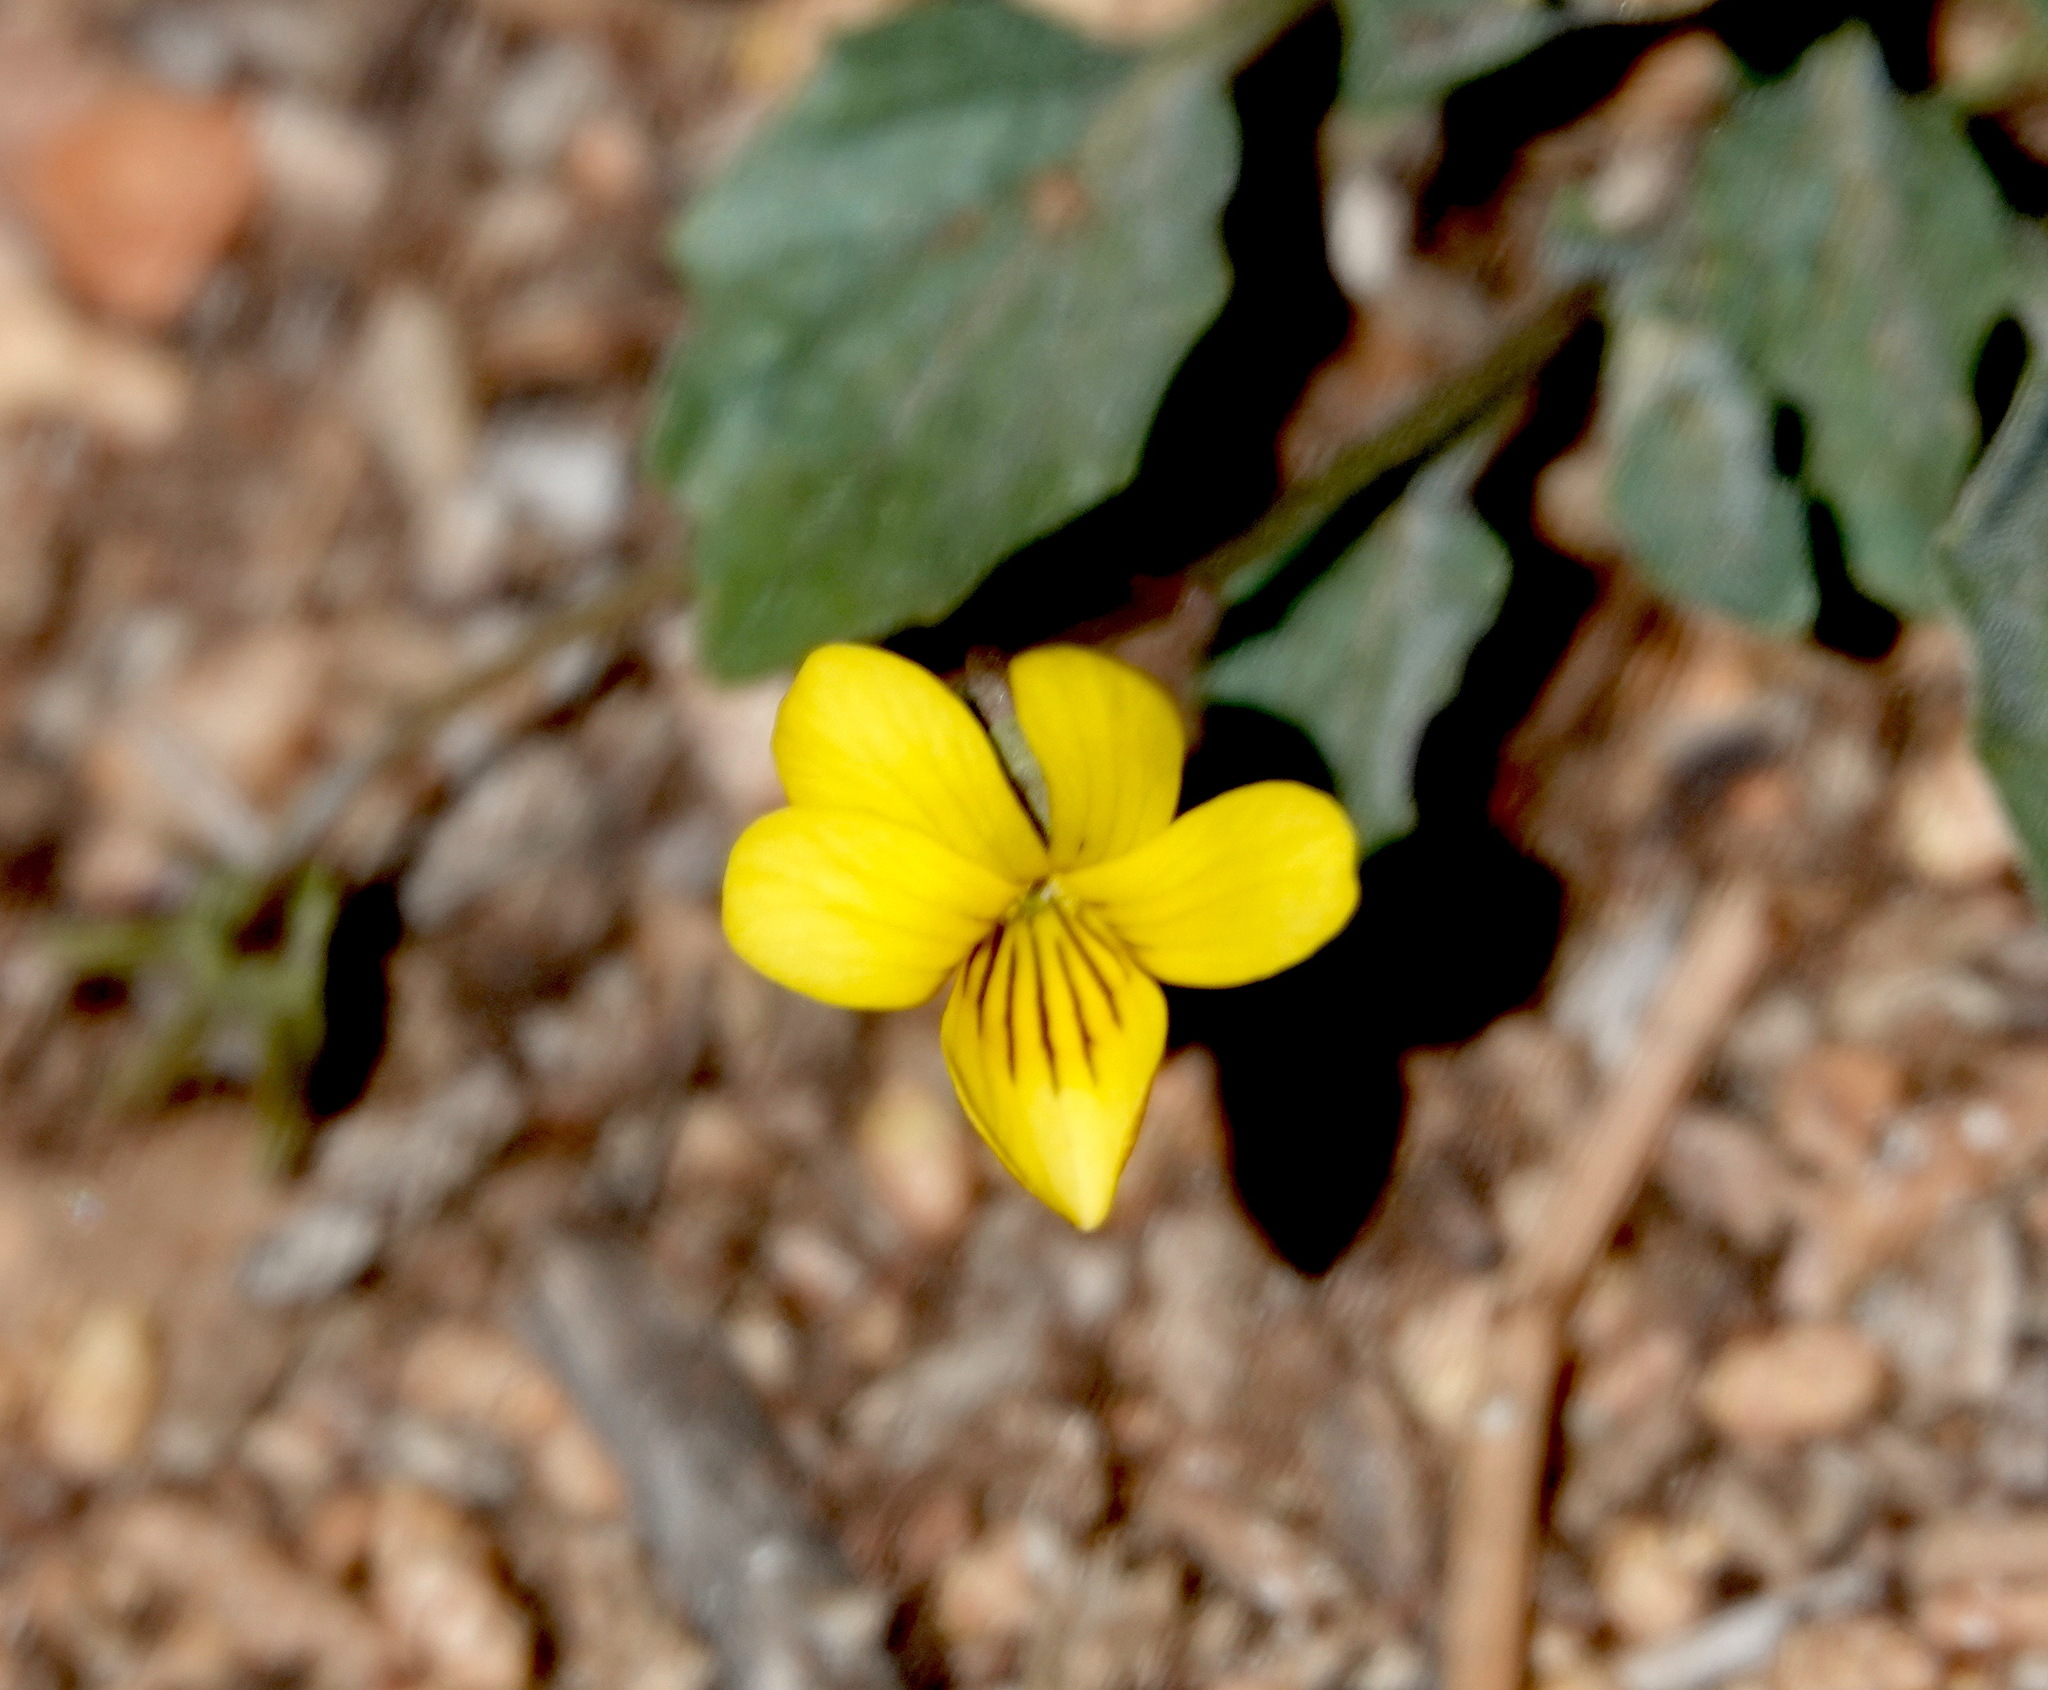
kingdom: Plantae
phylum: Tracheophyta
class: Magnoliopsida
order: Malpighiales
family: Violaceae
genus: Viola
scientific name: Viola purpurea
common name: Pine violet
